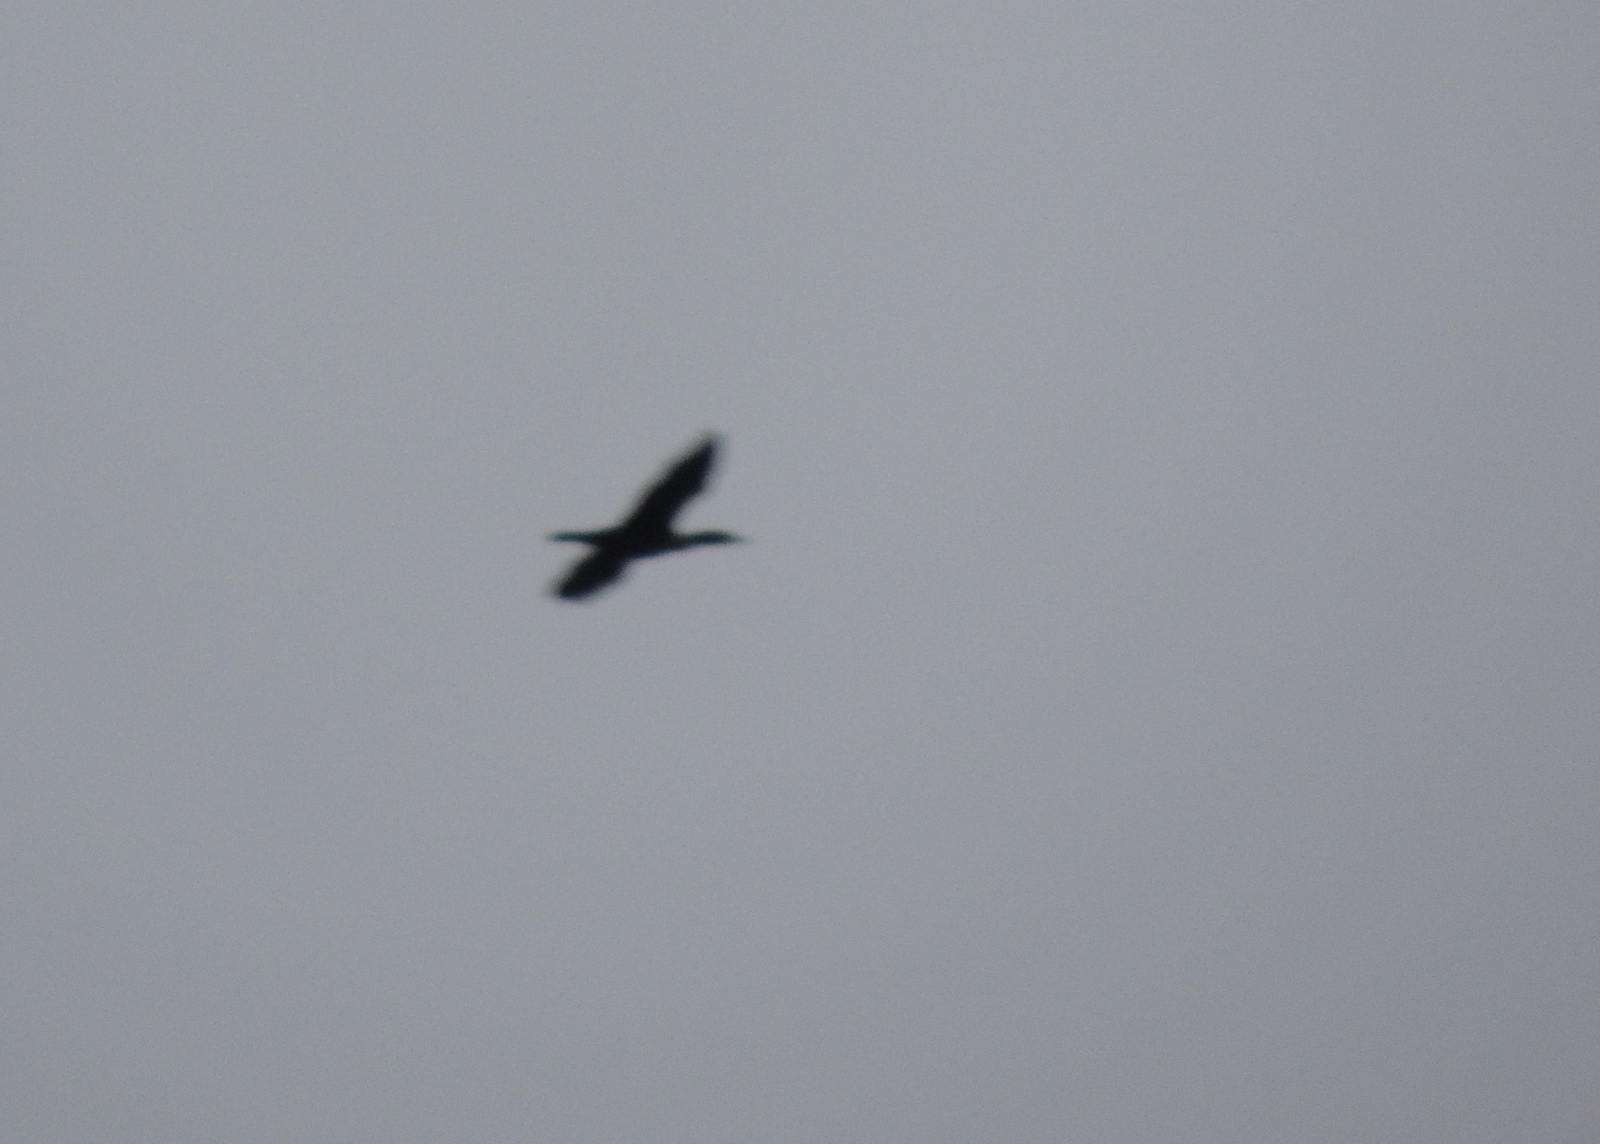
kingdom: Animalia
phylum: Chordata
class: Aves
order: Suliformes
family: Phalacrocoracidae
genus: Phalacrocorax
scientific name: Phalacrocorax auritus
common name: Double-crested cormorant
